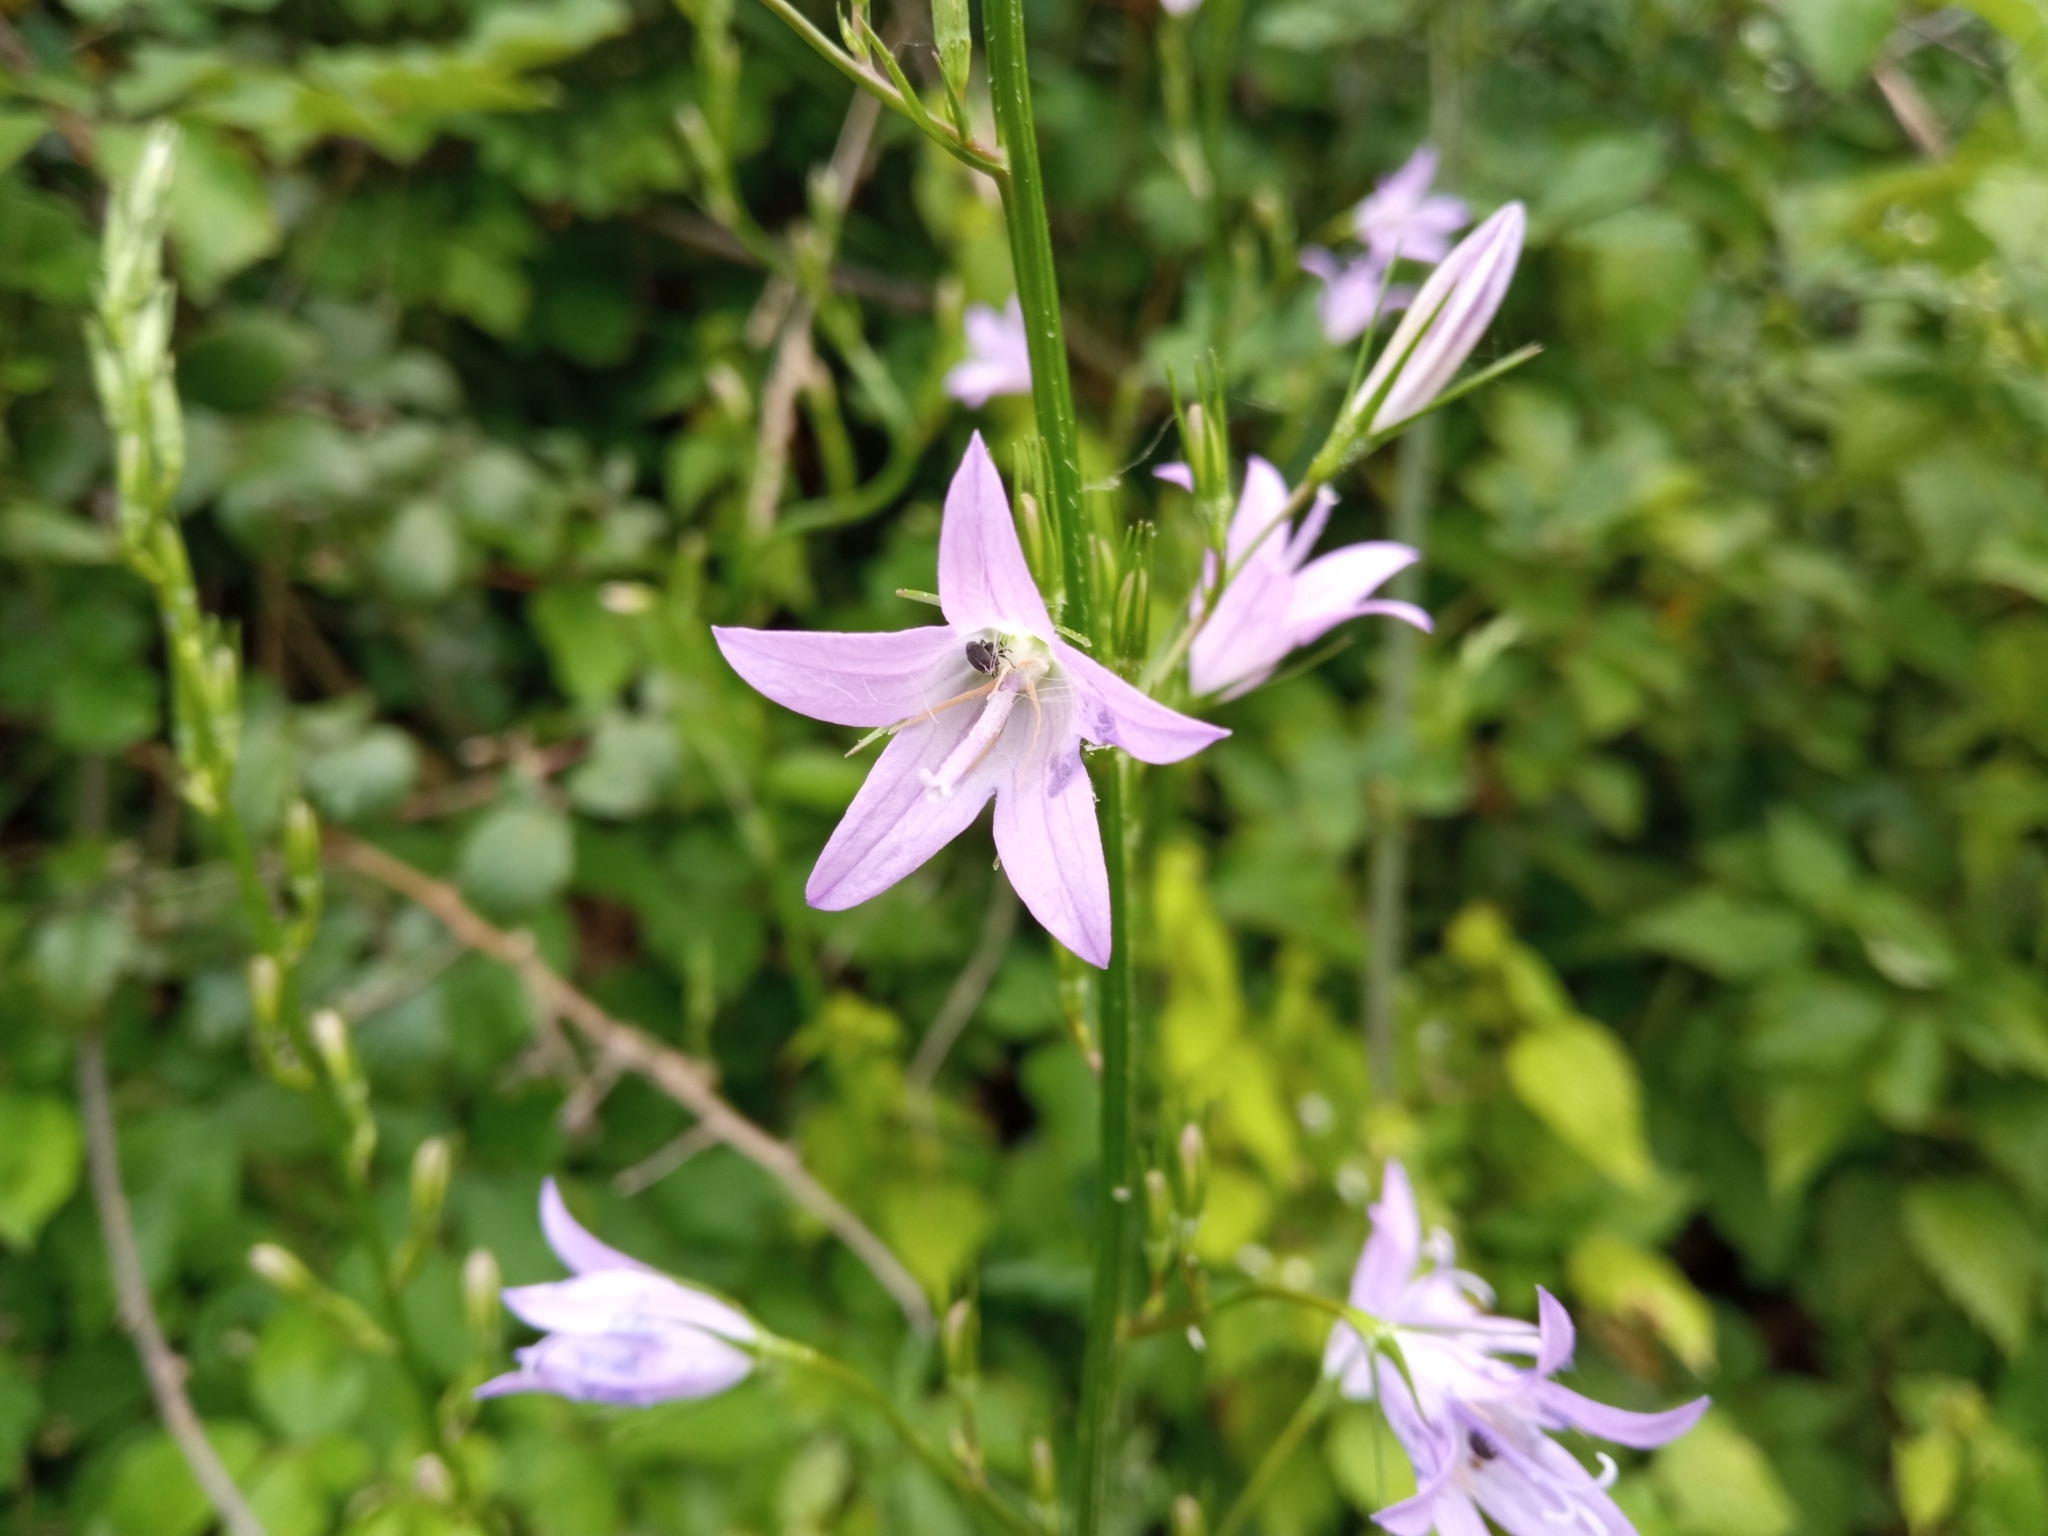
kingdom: Plantae
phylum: Tracheophyta
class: Magnoliopsida
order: Asterales
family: Campanulaceae
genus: Campanula
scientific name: Campanula rapunculus
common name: Rampion bellflower
